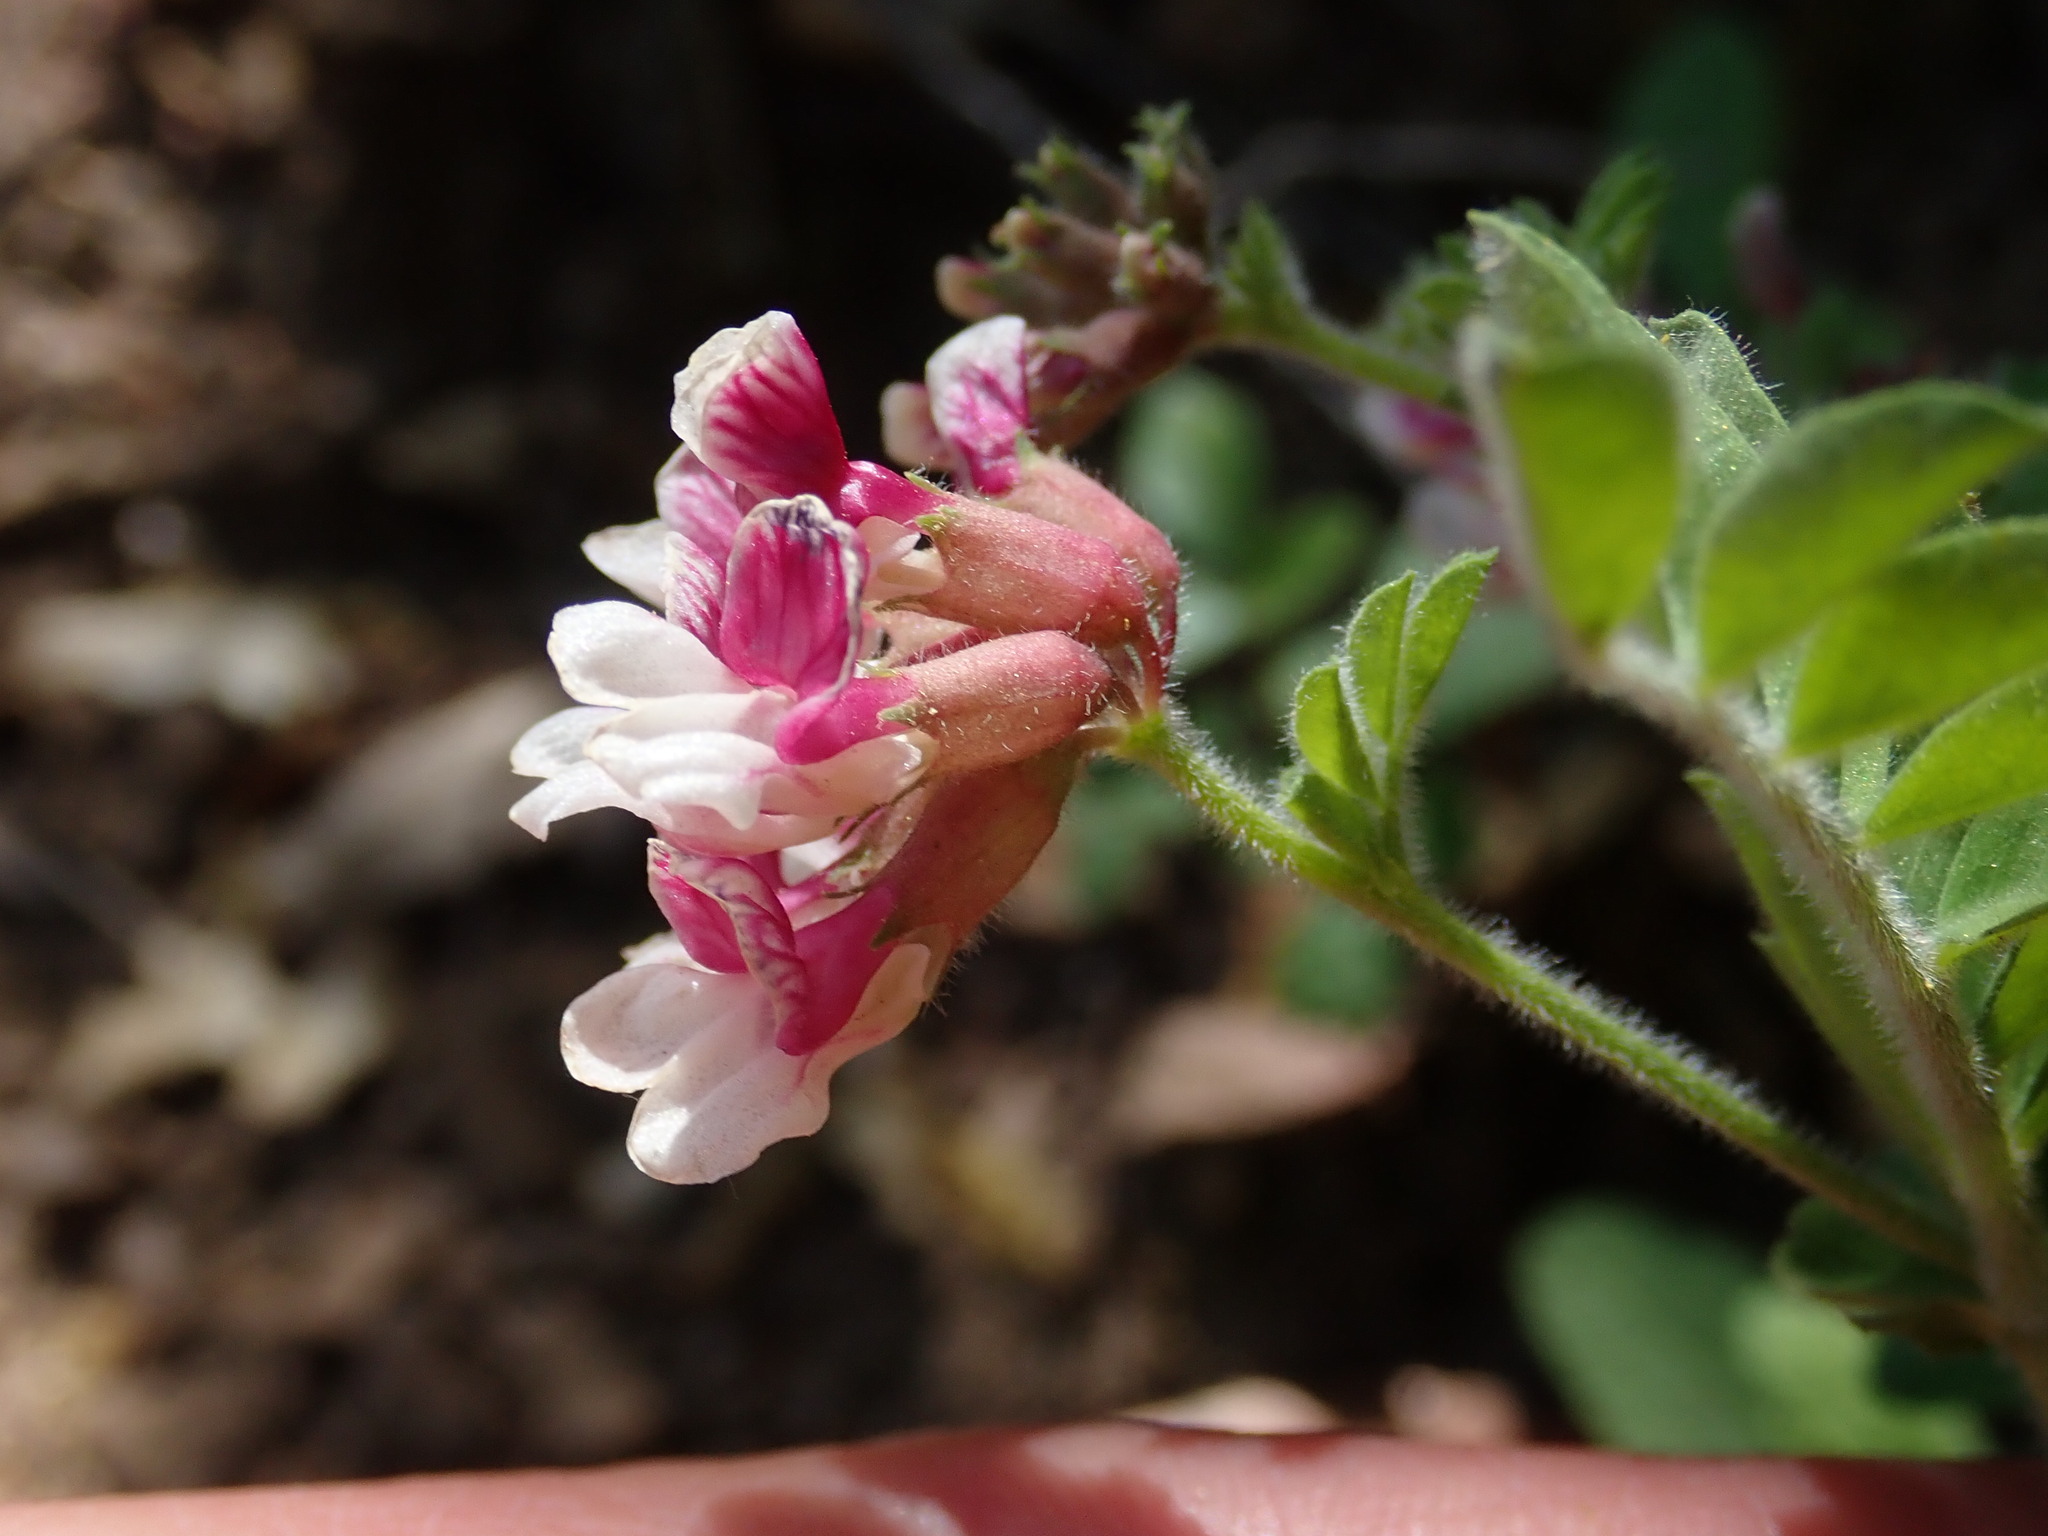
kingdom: Plantae
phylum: Tracheophyta
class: Magnoliopsida
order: Fabales
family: Fabaceae
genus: Hosackia
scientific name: Hosackia stipularis
